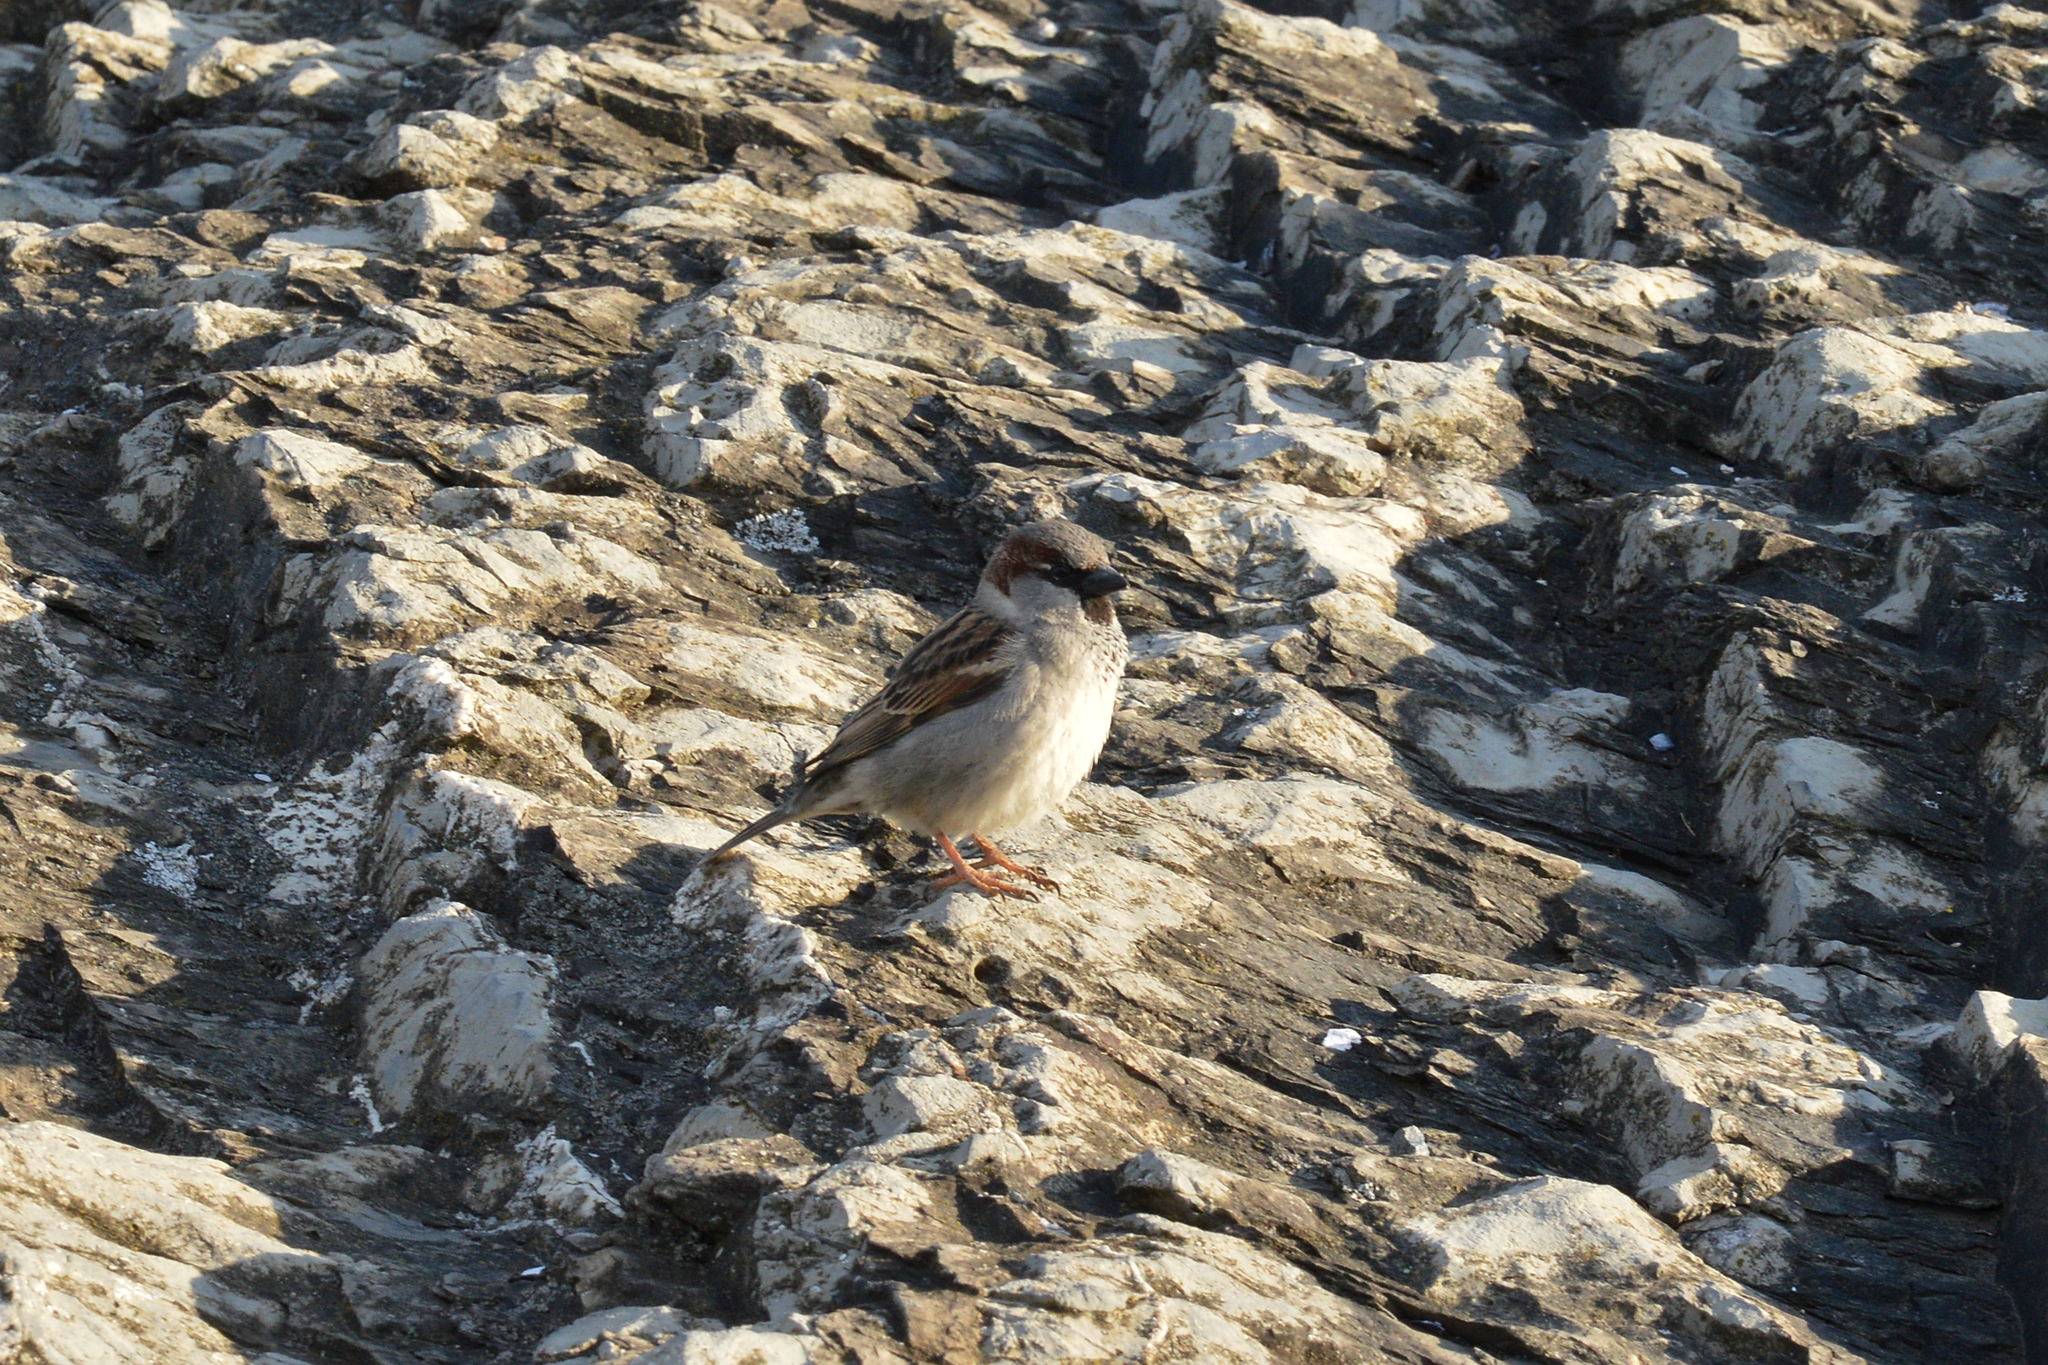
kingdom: Animalia
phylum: Chordata
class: Aves
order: Passeriformes
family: Passeridae
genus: Passer
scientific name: Passer domesticus
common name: House sparrow
